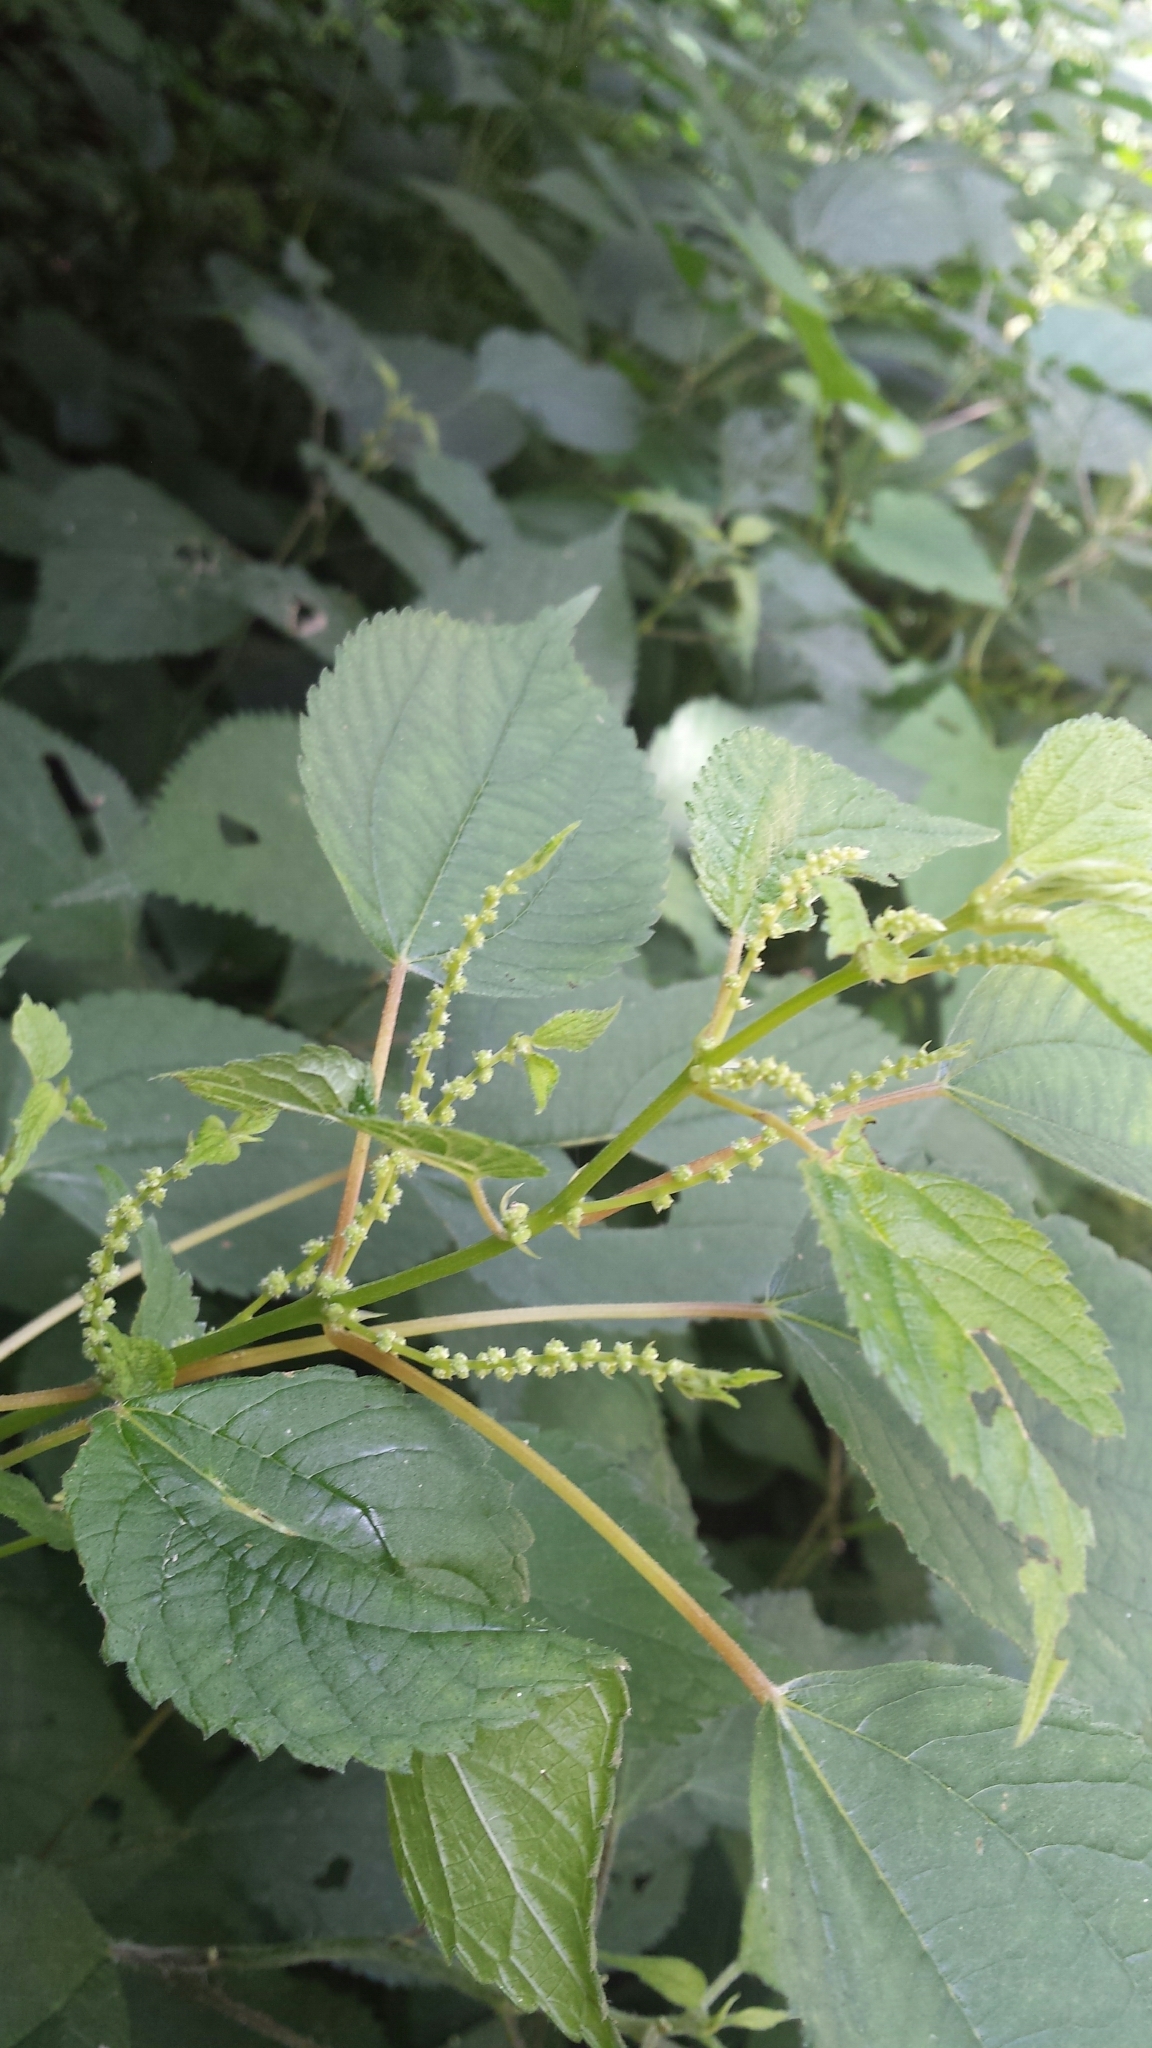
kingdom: Plantae
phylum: Tracheophyta
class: Magnoliopsida
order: Rosales
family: Urticaceae
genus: Boehmeria
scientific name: Boehmeria cylindrica
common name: Bog-hemp
